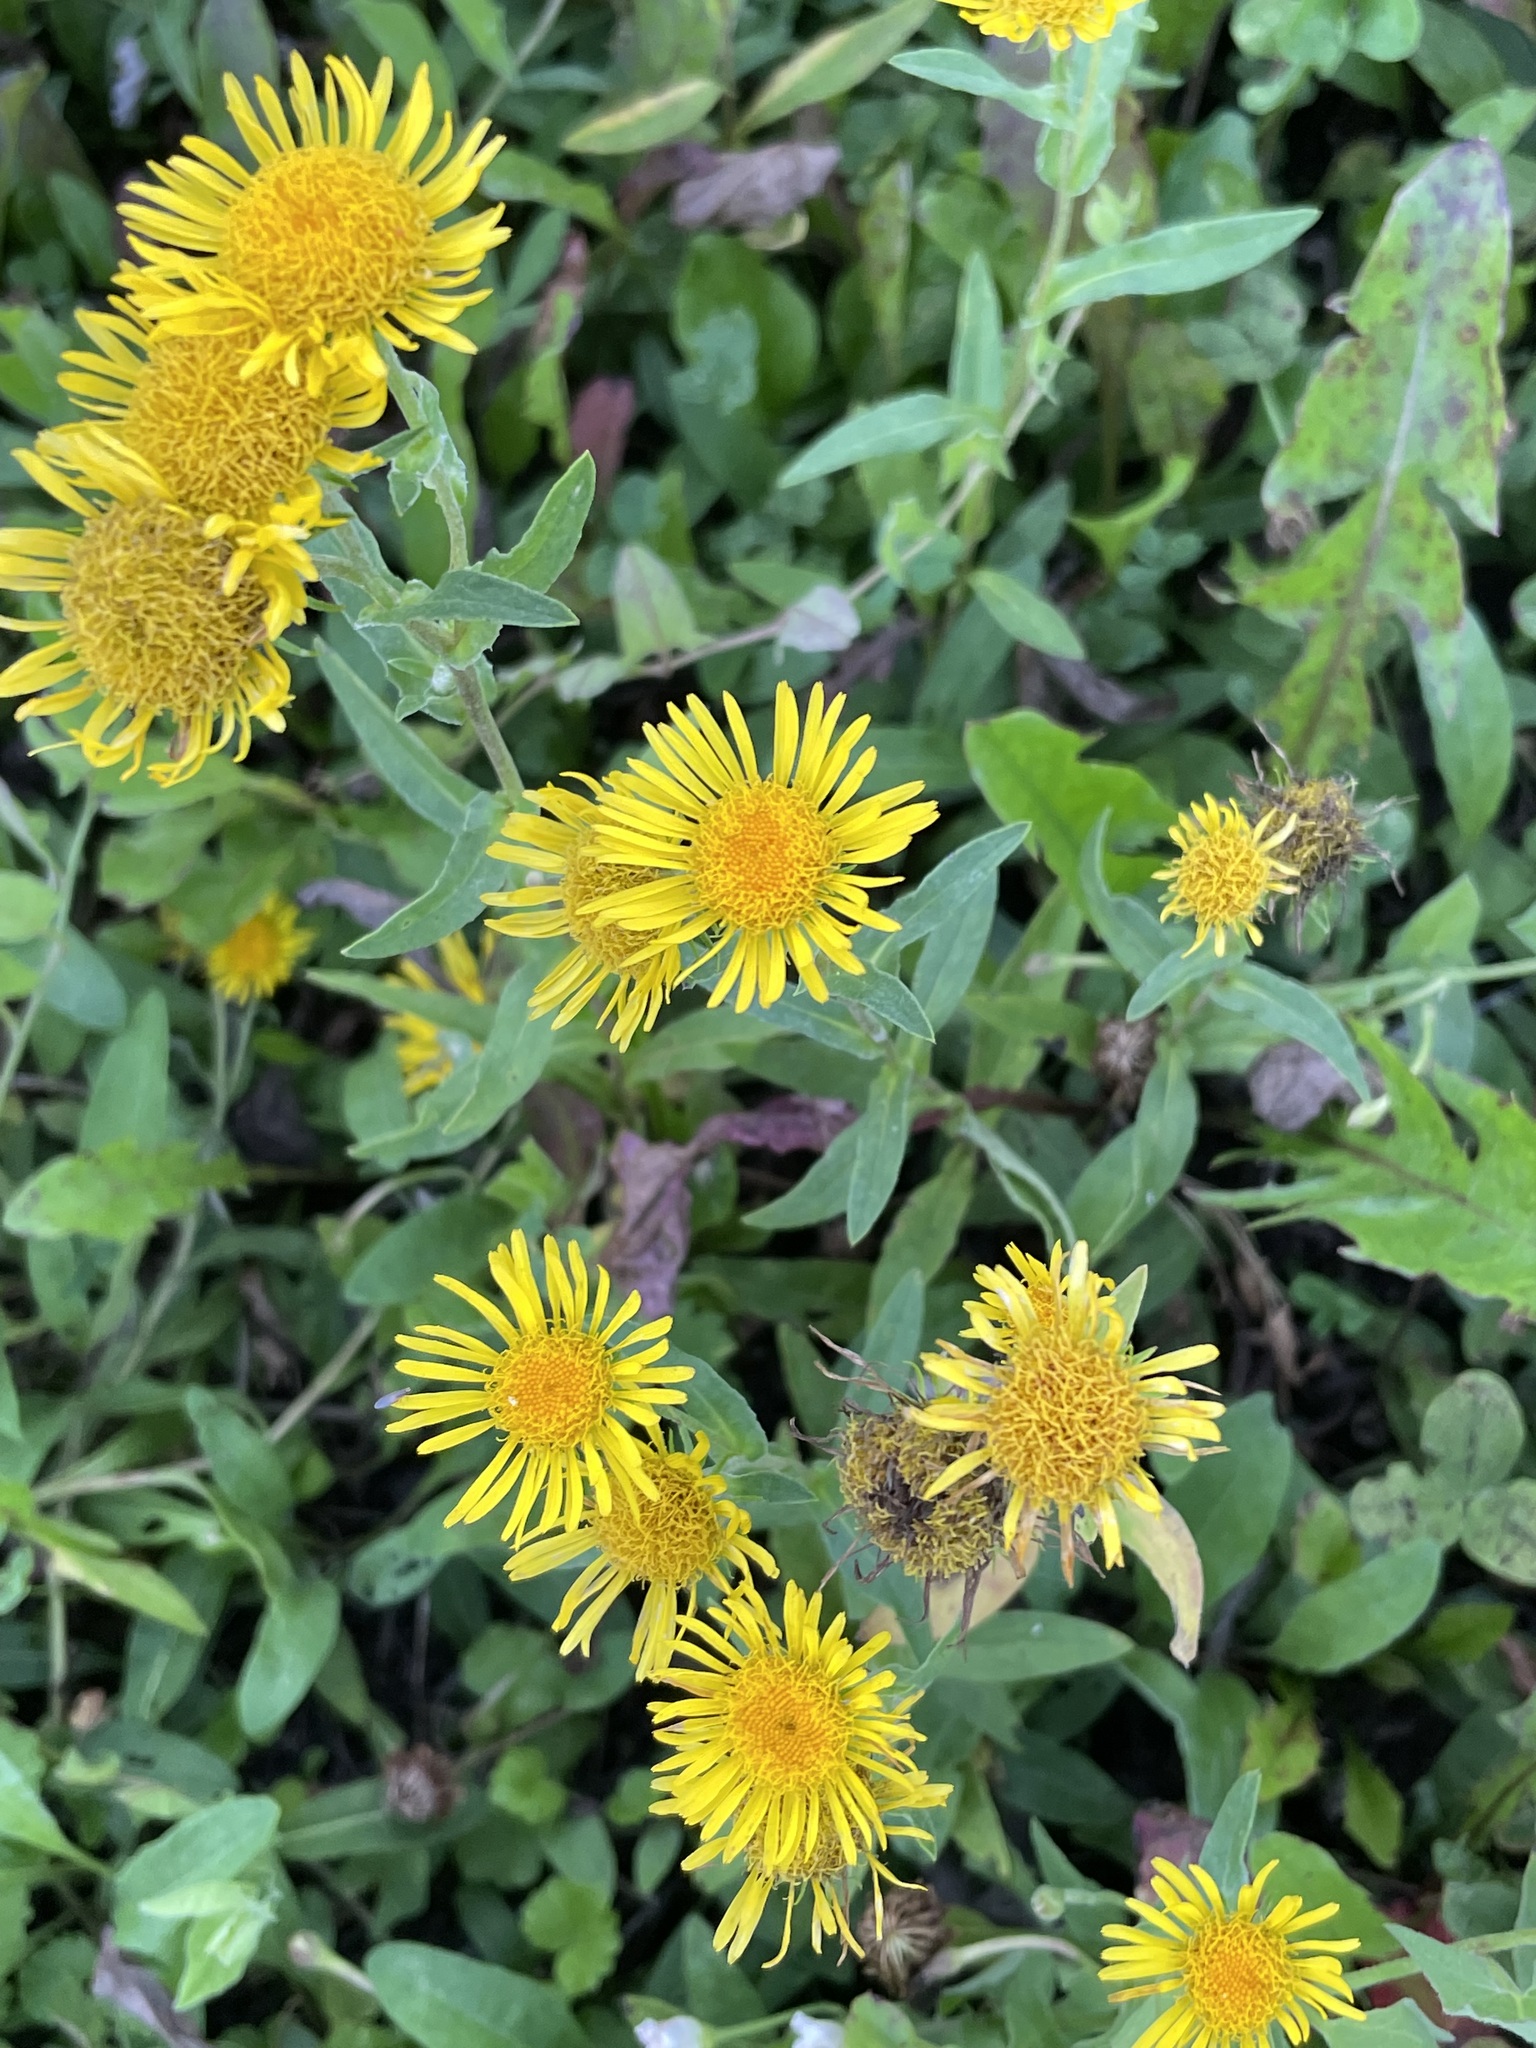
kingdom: Plantae
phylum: Tracheophyta
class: Magnoliopsida
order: Asterales
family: Asteraceae
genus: Pentanema
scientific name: Pentanema britannicum
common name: British elecampane
